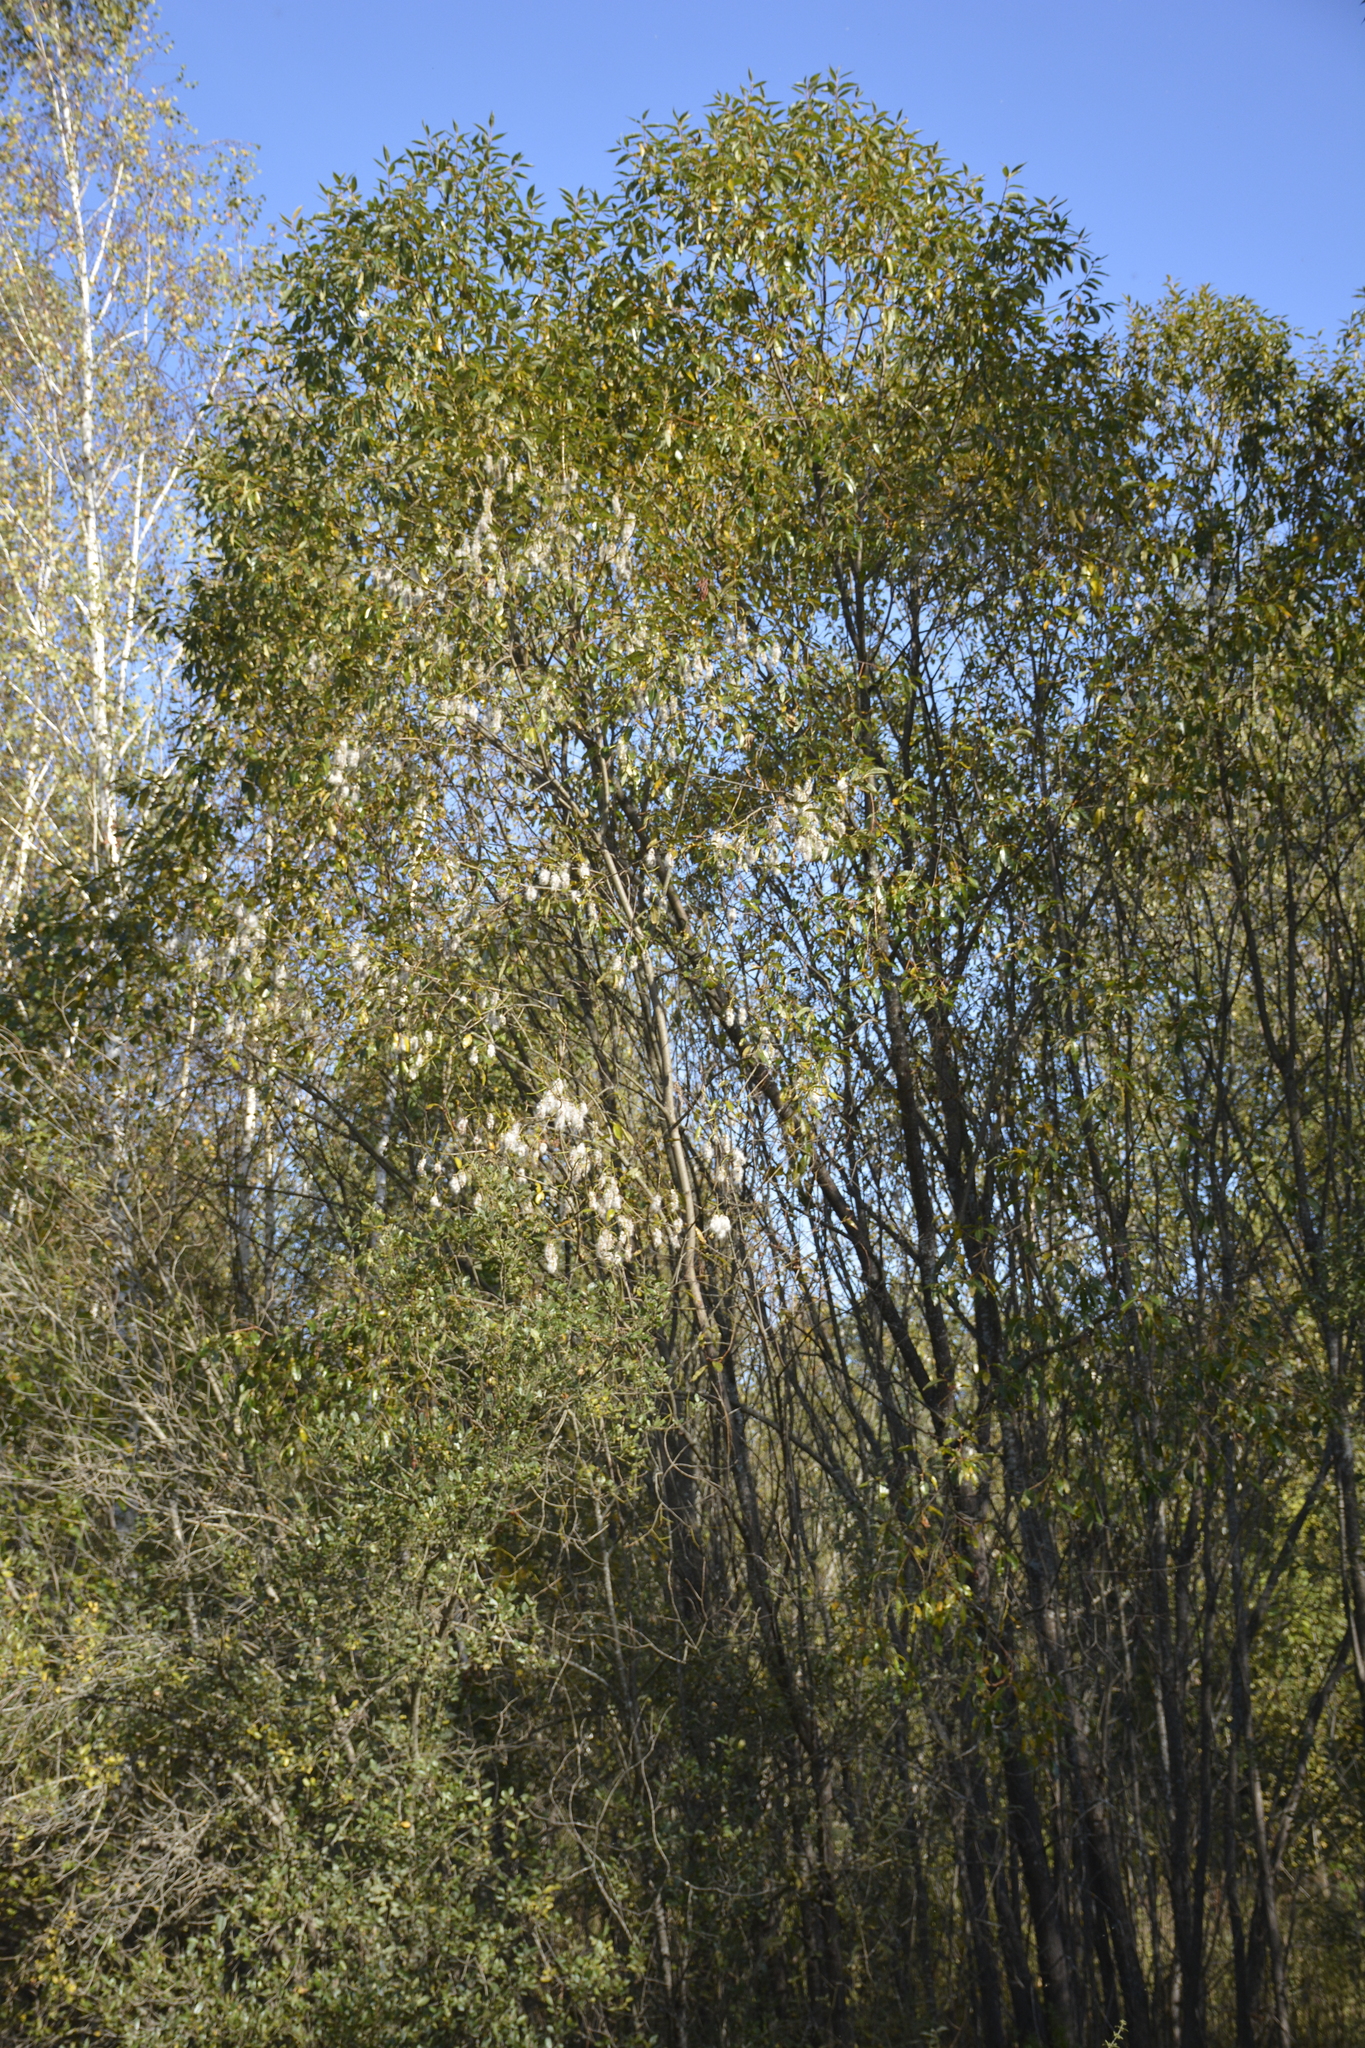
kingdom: Plantae
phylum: Tracheophyta
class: Magnoliopsida
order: Malpighiales
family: Salicaceae
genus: Salix
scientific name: Salix pentandra
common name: Bay willow
